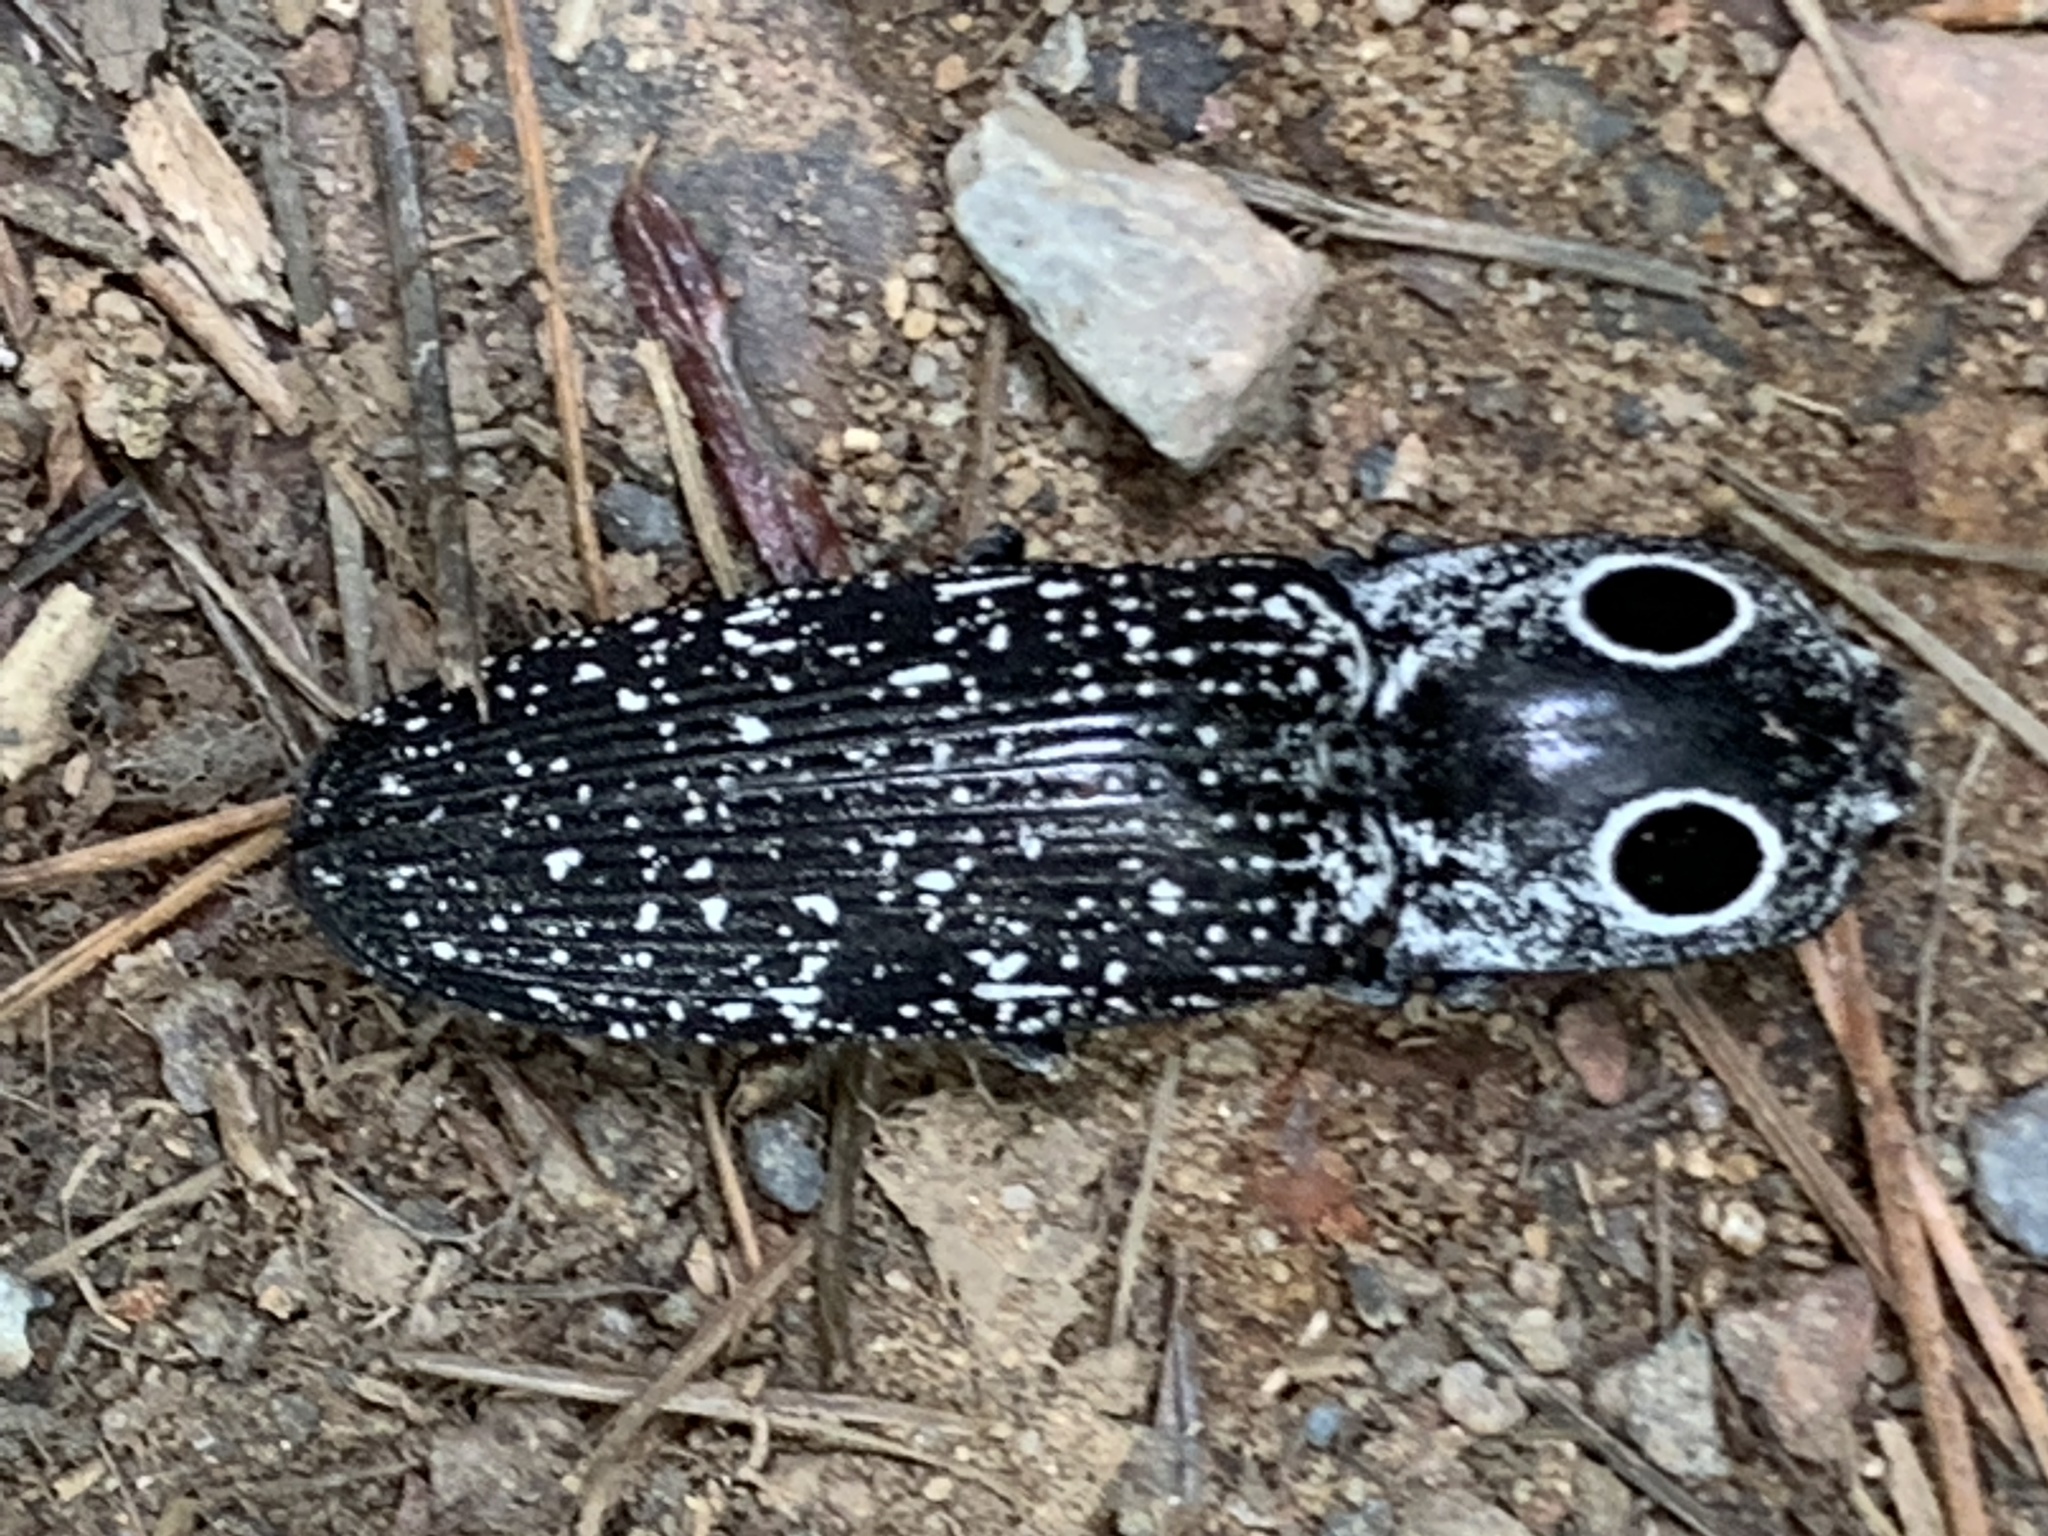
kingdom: Animalia
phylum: Arthropoda
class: Insecta
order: Coleoptera
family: Elateridae
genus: Alaus
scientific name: Alaus oculatus
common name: Eastern eyed click beetle
